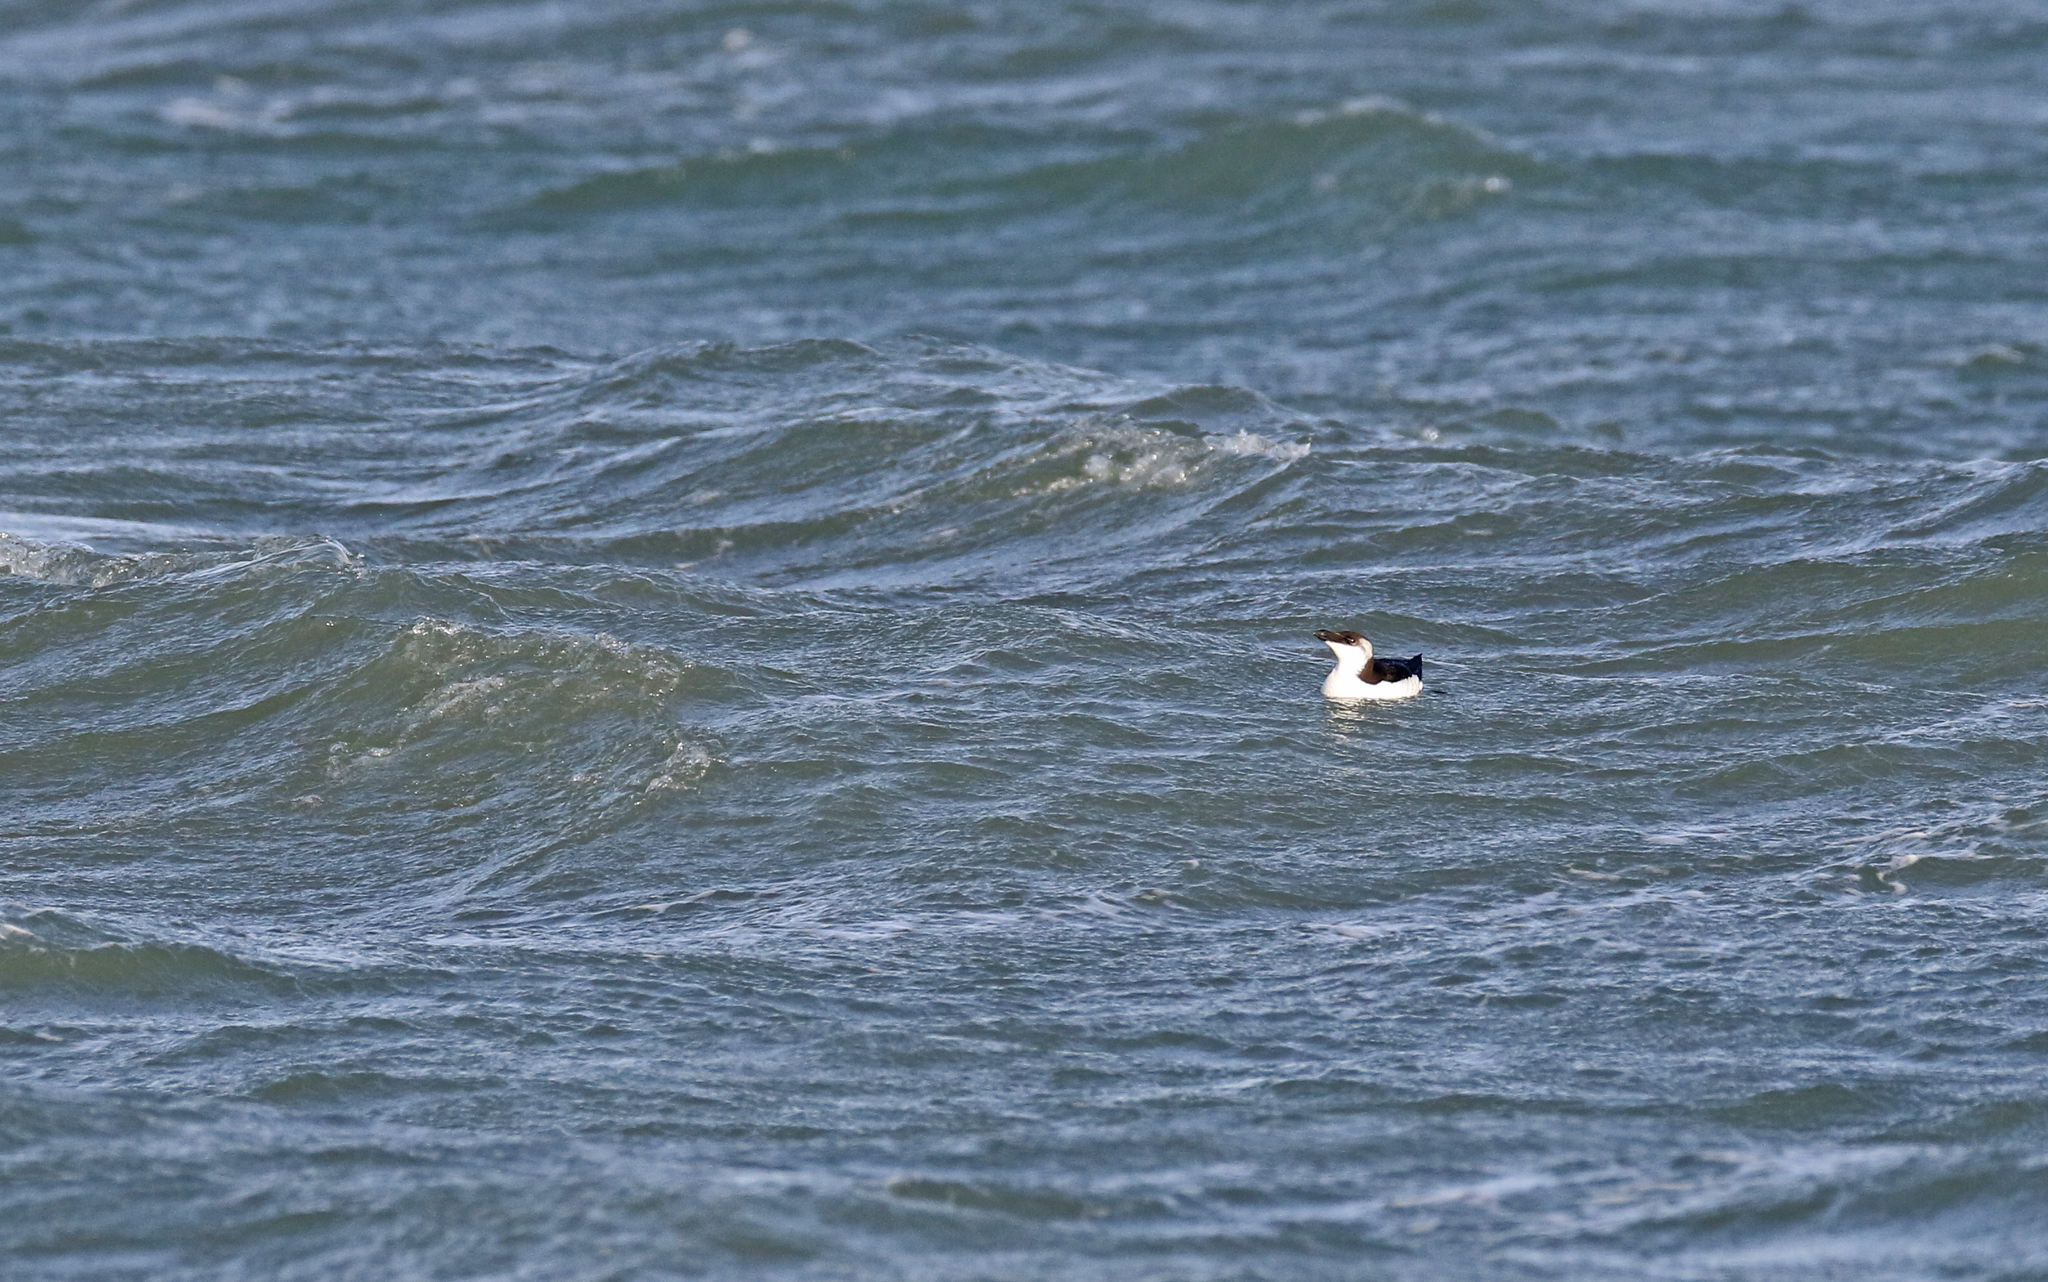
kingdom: Animalia
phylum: Chordata
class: Aves
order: Charadriiformes
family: Alcidae
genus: Alca
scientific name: Alca torda
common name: Razorbill
